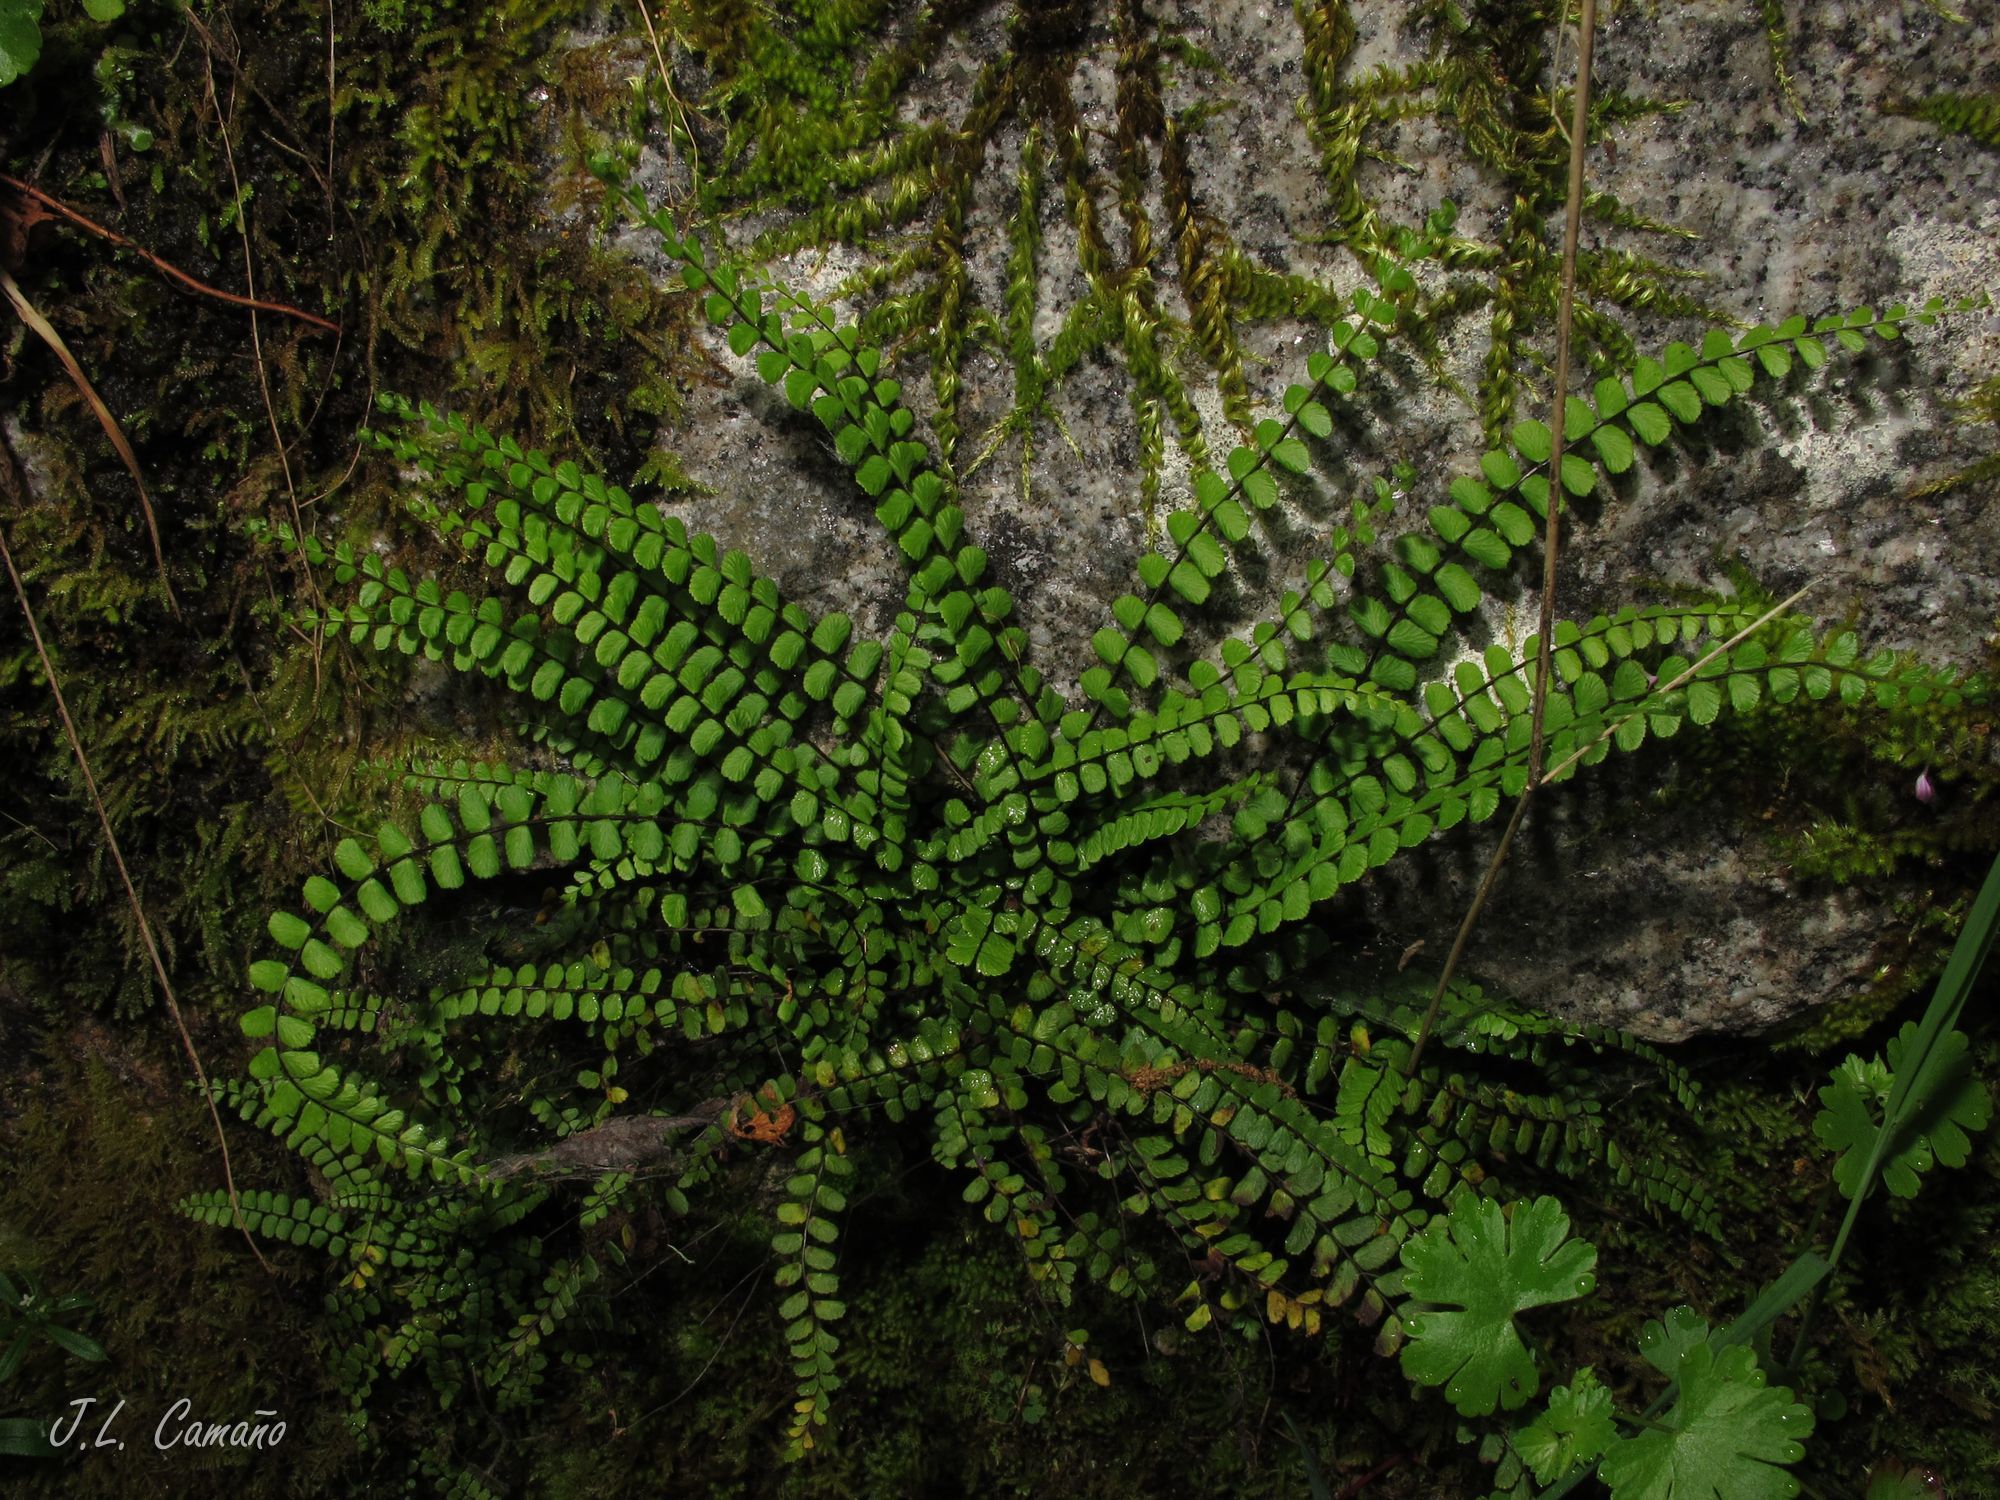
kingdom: Plantae
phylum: Tracheophyta
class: Polypodiopsida
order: Polypodiales
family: Aspleniaceae
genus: Asplenium
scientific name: Asplenium trichomanes
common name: Maidenhair spleenwort
